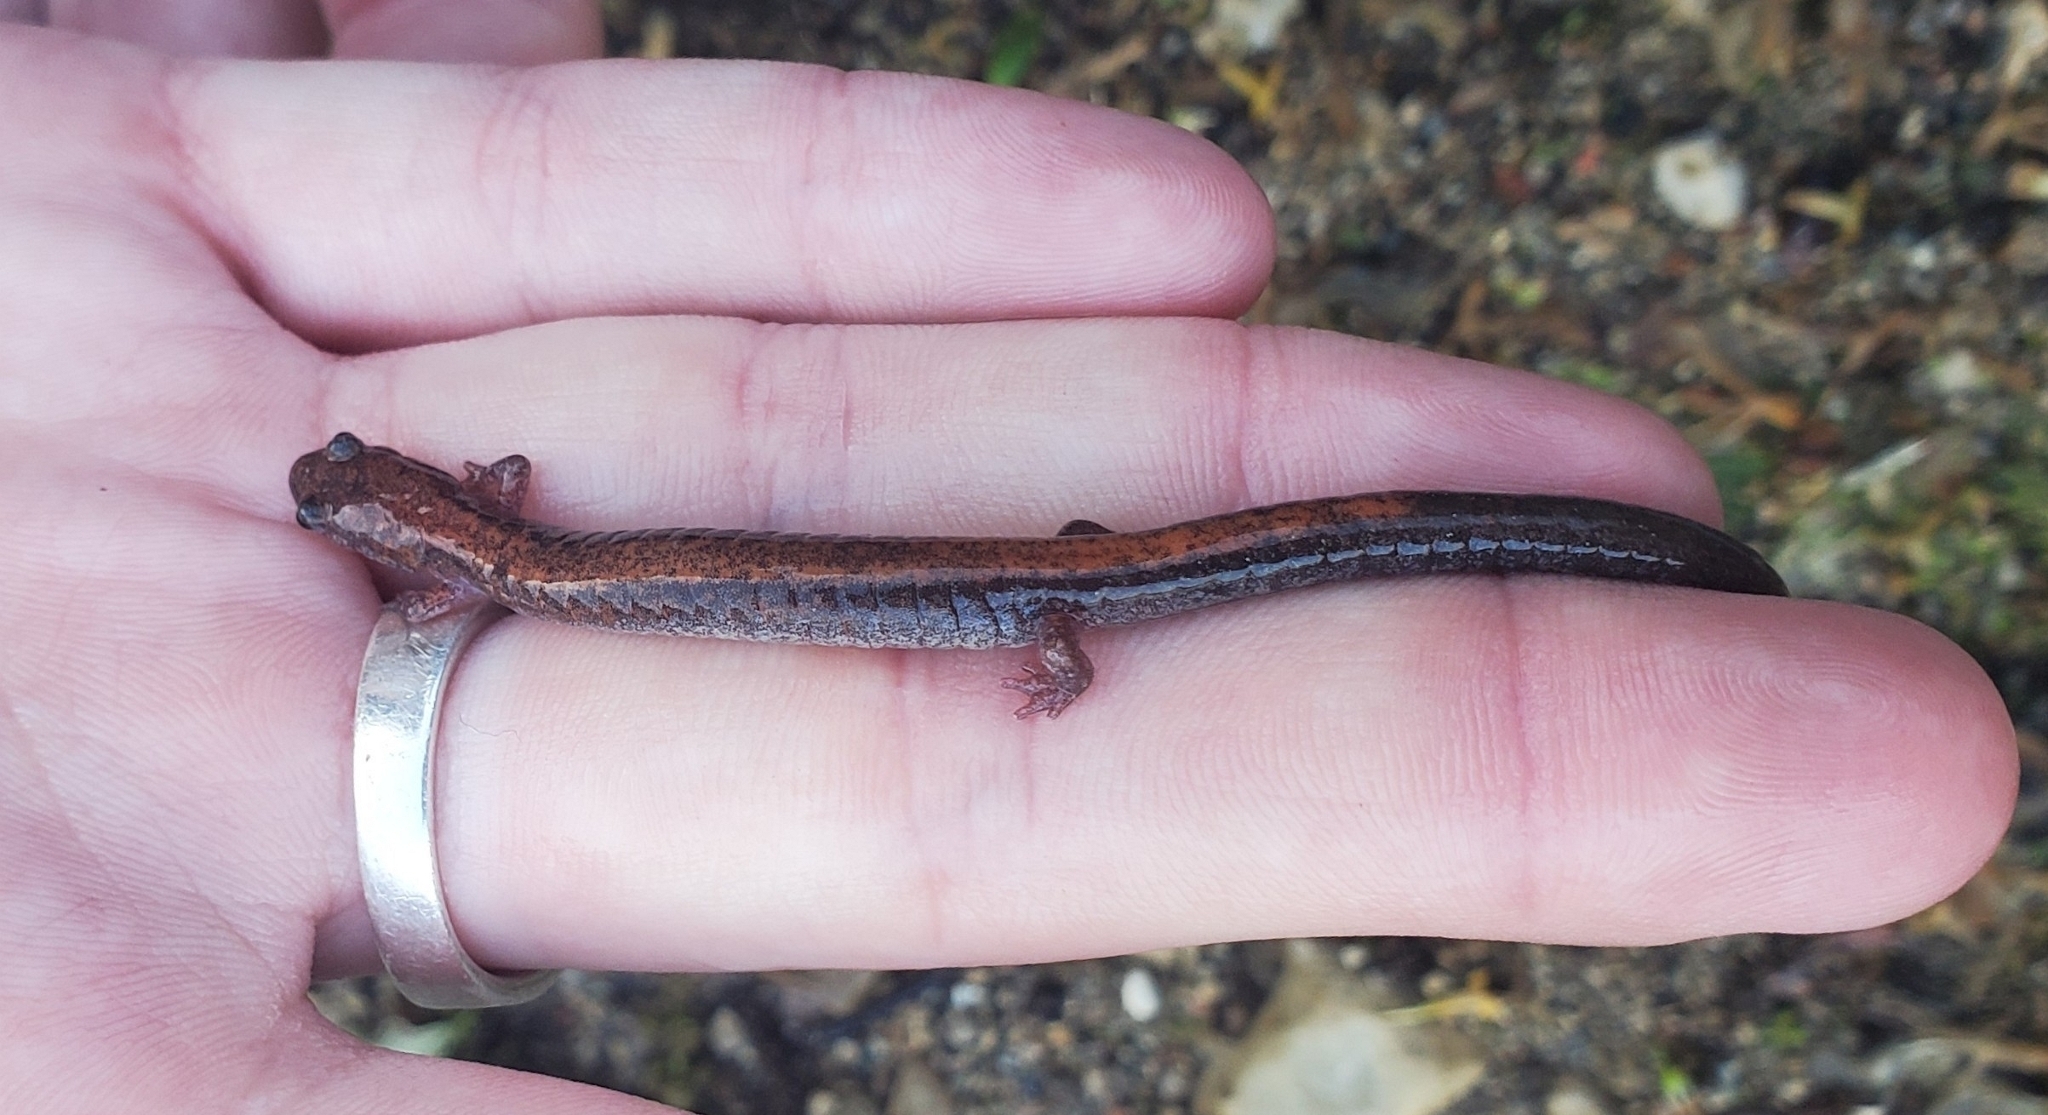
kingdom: Animalia
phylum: Chordata
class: Amphibia
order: Caudata
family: Plethodontidae
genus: Plethodon
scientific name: Plethodon cinereus
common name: Redback salamander
